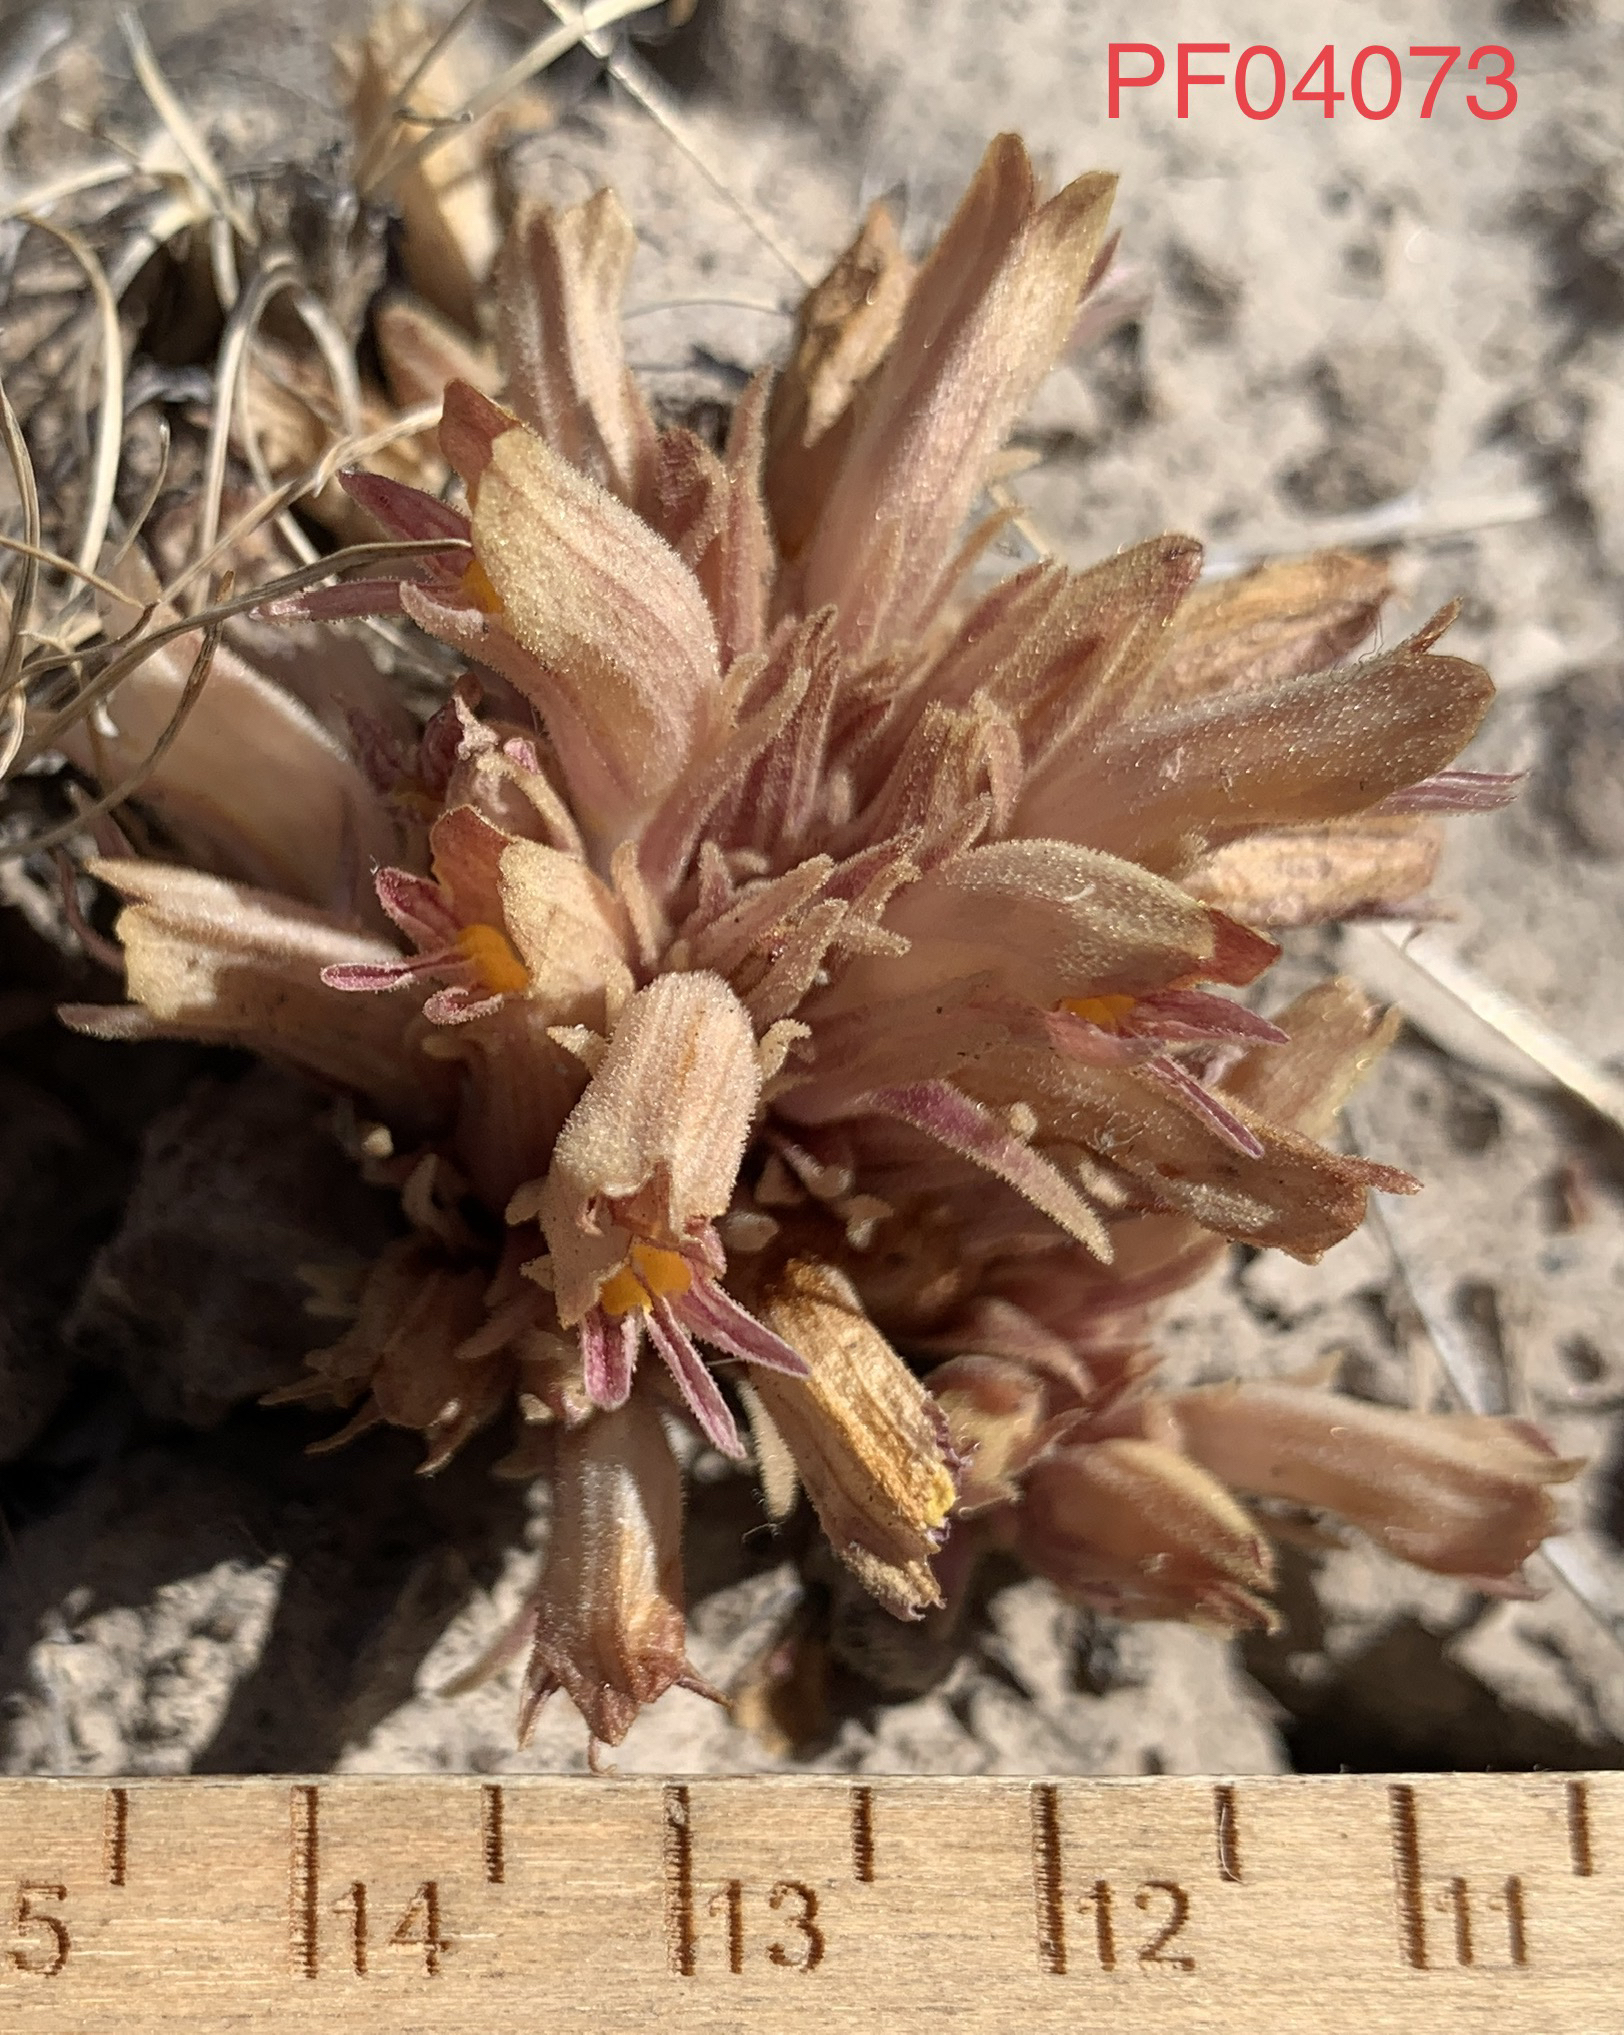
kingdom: Plantae
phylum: Tracheophyta
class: Magnoliopsida
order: Lamiales
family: Orobanchaceae
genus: Aphyllon
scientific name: Aphyllon corymbosum
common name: Flat-top broomrape
